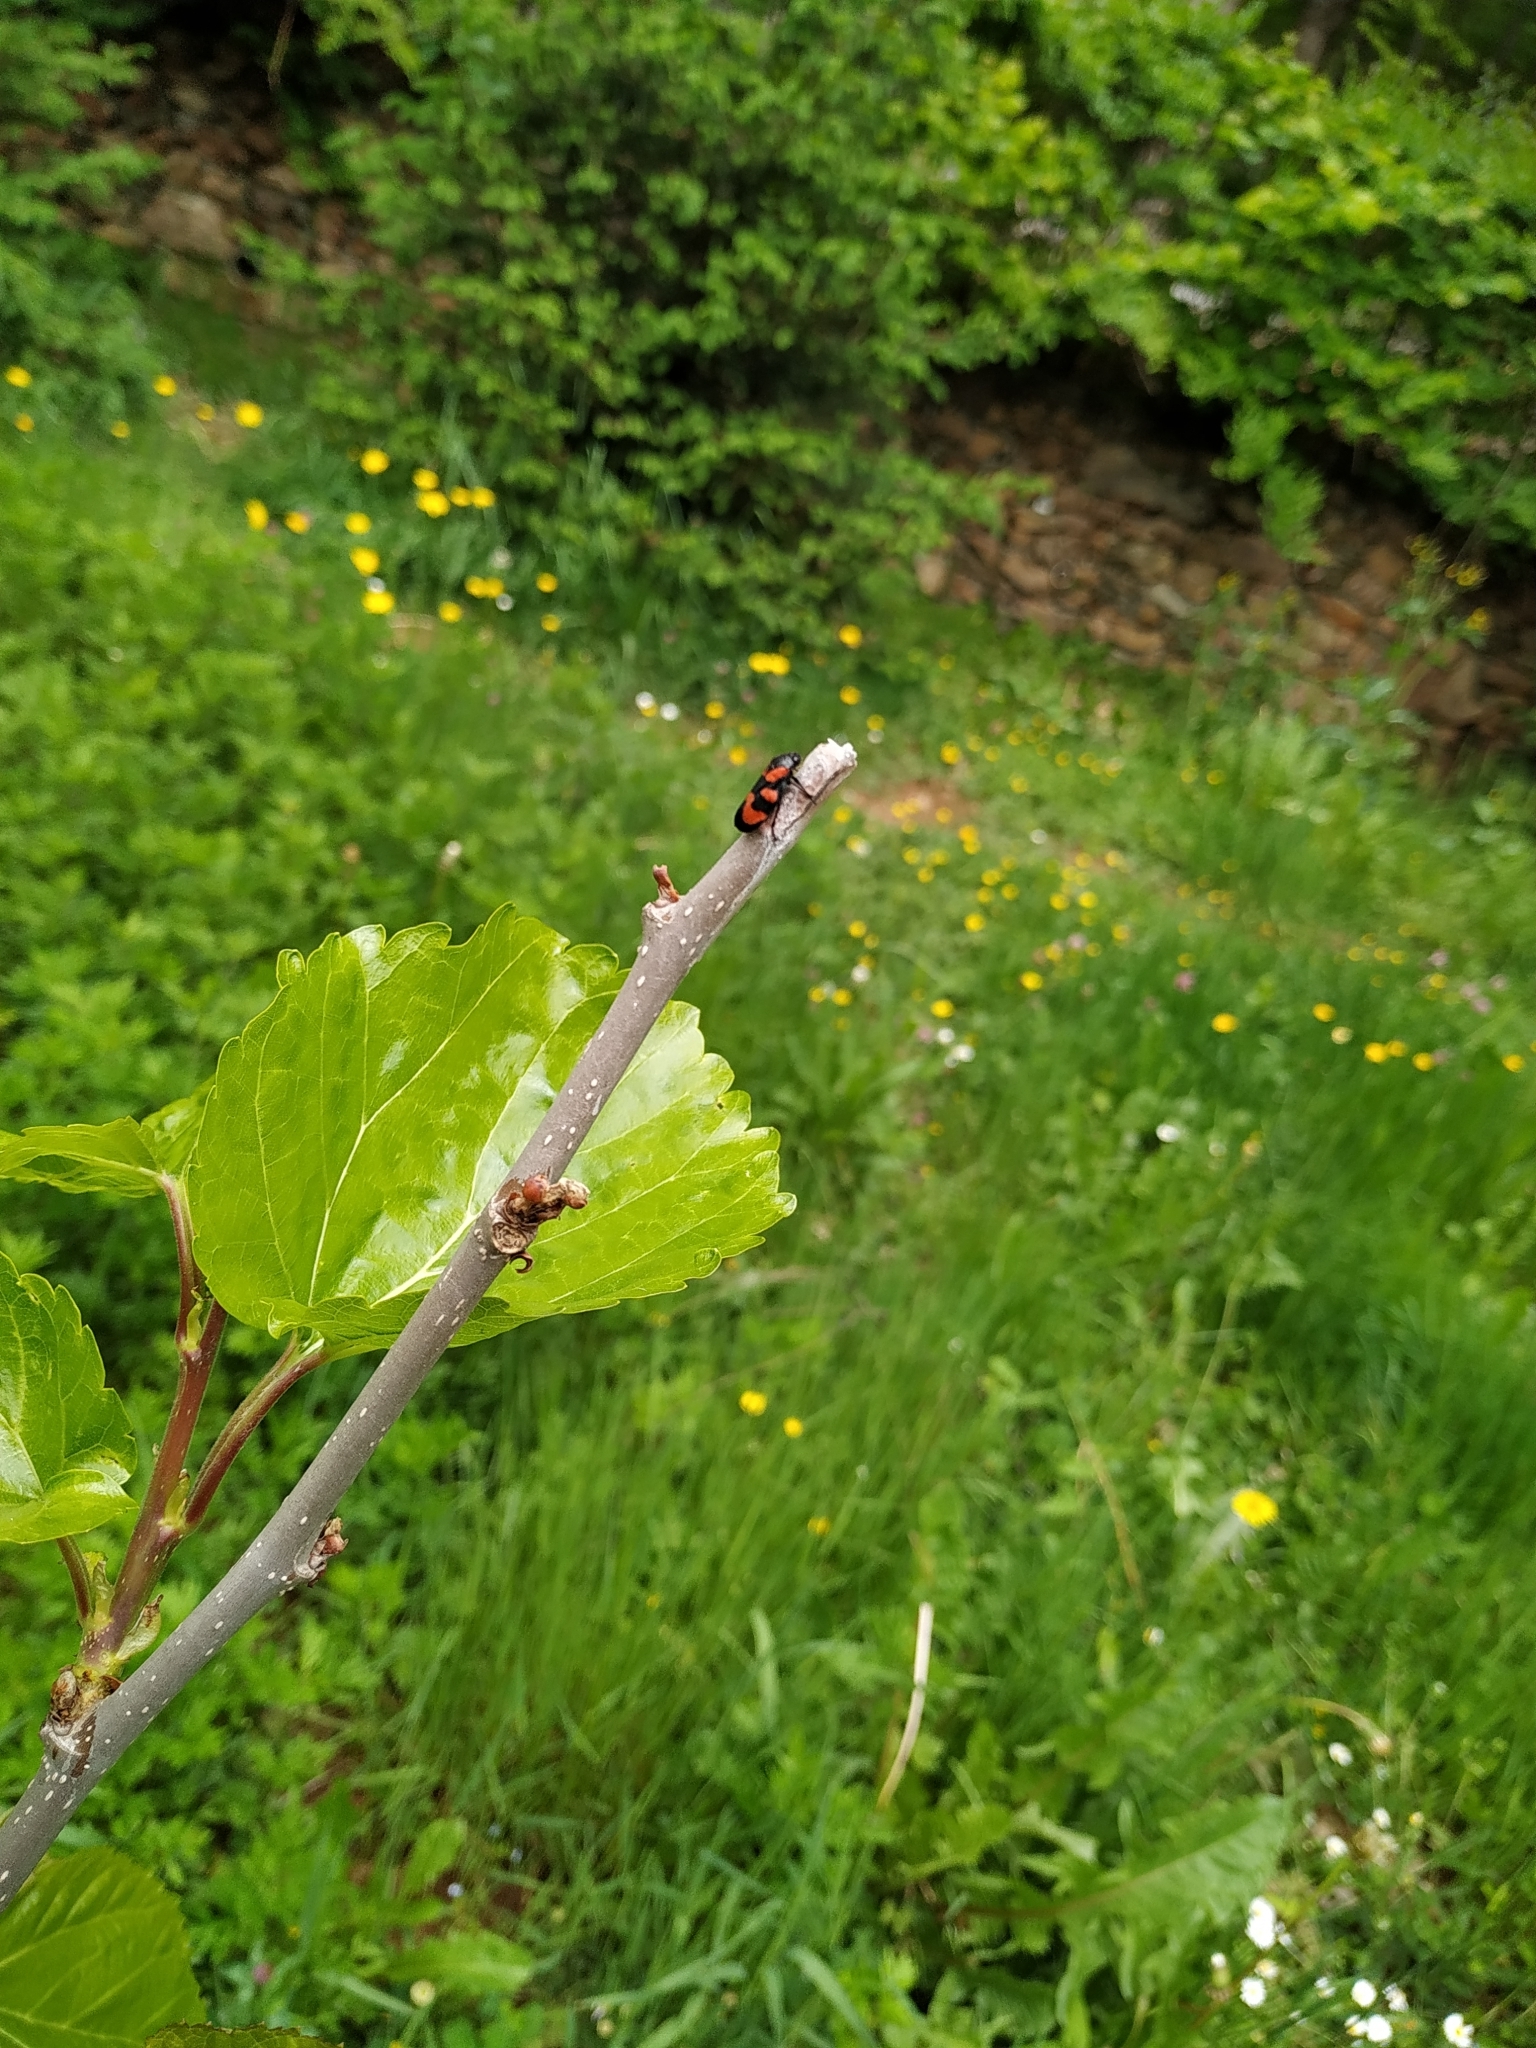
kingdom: Animalia
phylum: Arthropoda
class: Insecta
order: Hemiptera
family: Cercopidae
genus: Cercopis
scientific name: Cercopis vulnerata
